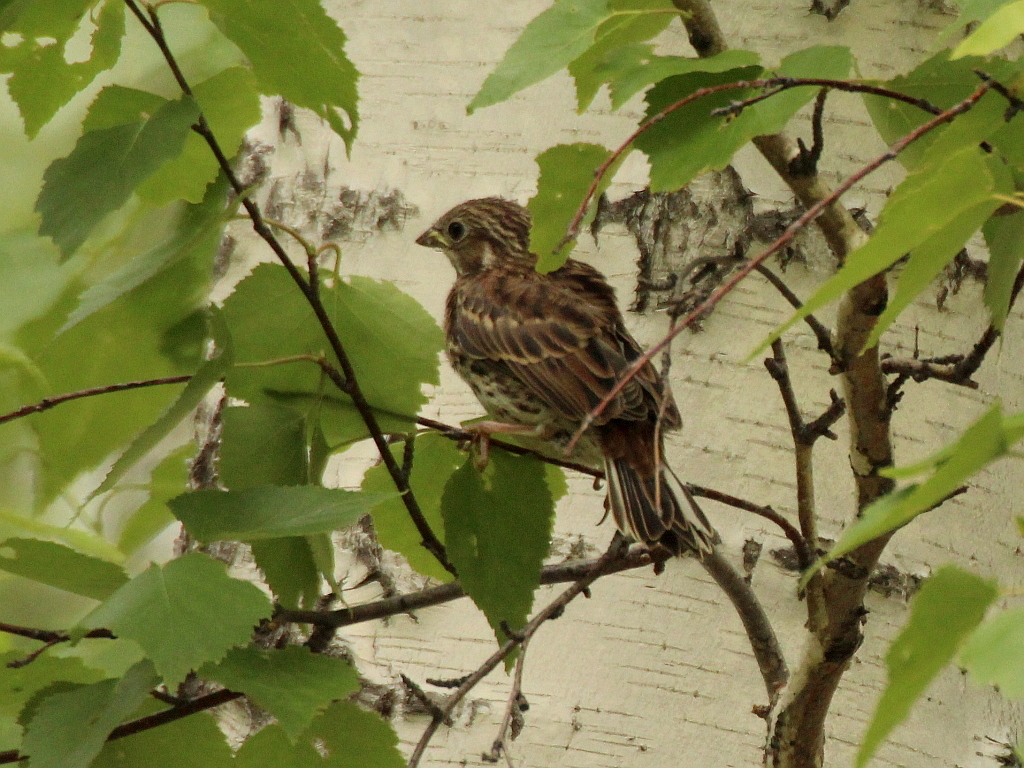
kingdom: Animalia
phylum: Chordata
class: Aves
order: Passeriformes
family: Emberizidae
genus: Emberiza
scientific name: Emberiza leucocephalos
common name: Pine bunting
